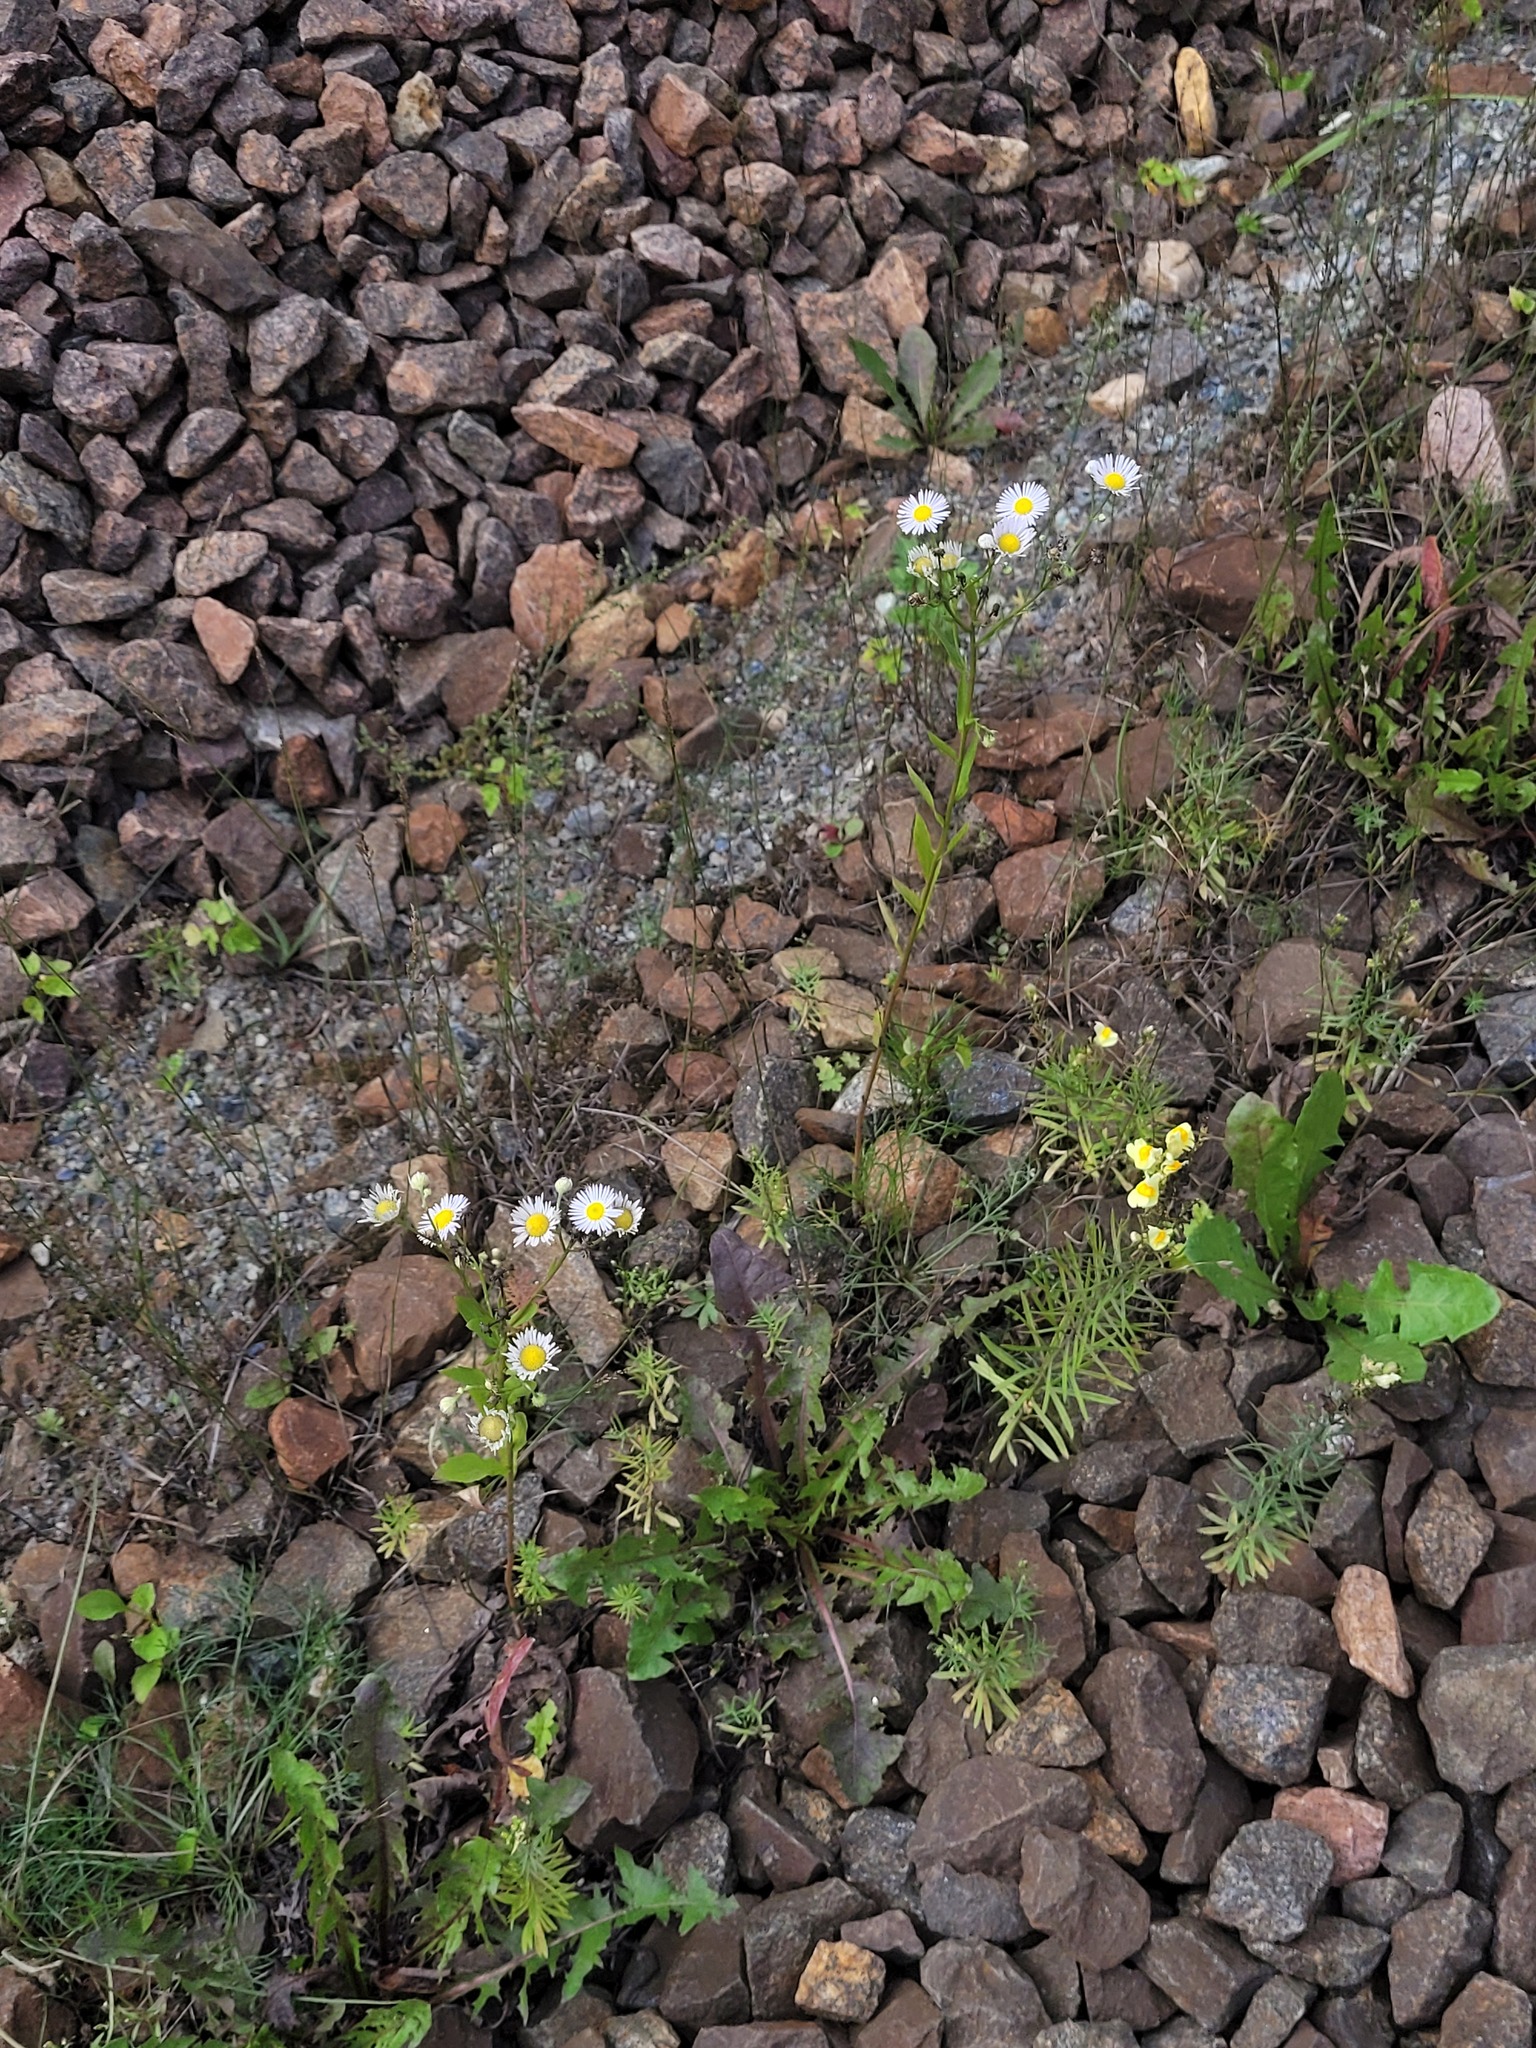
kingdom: Plantae
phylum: Tracheophyta
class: Magnoliopsida
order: Asterales
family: Asteraceae
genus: Erigeron
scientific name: Erigeron annuus
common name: Tall fleabane
